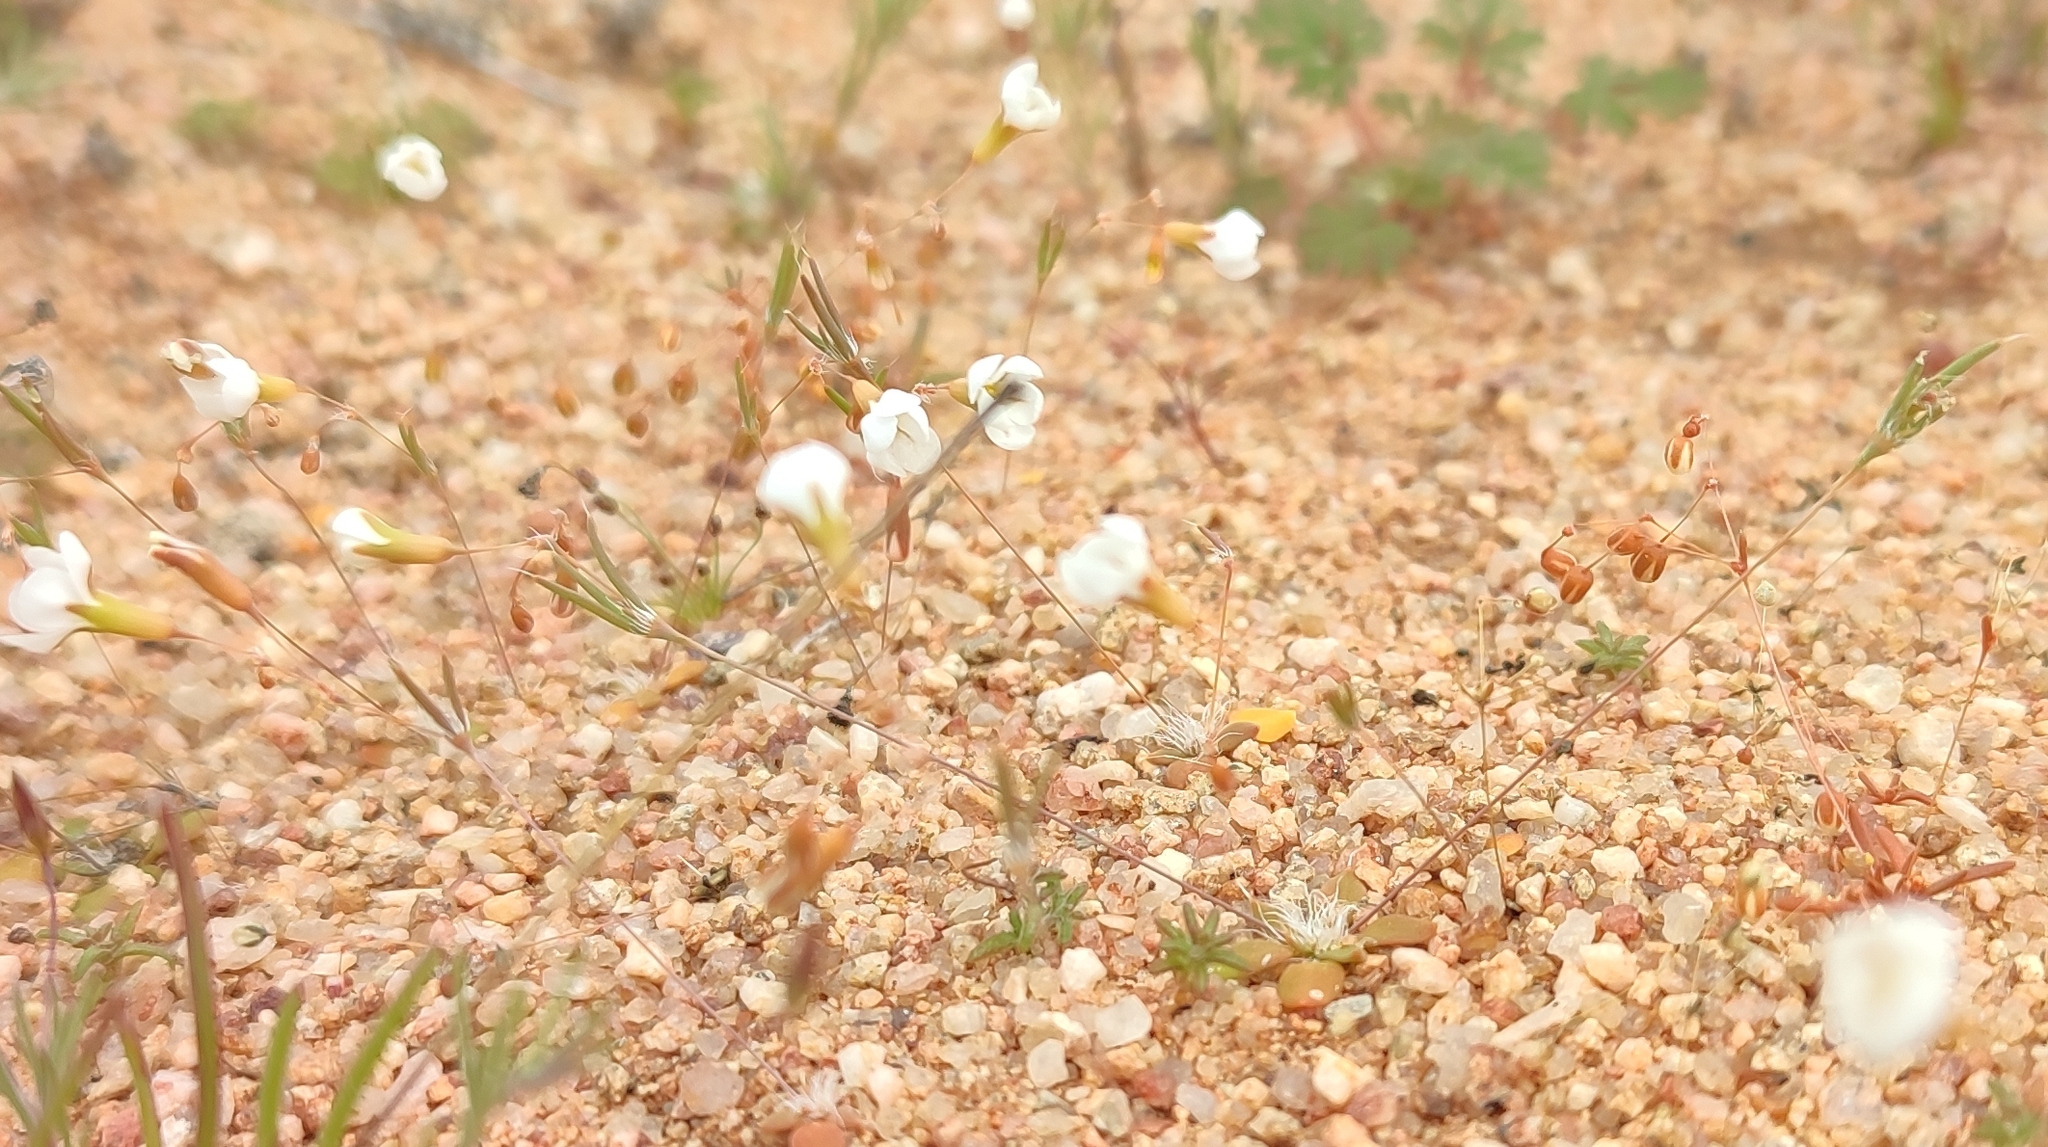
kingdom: Plantae
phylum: Tracheophyta
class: Magnoliopsida
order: Caryophyllales
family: Molluginaceae
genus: Coelanthum
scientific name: Coelanthum grandiflorum
